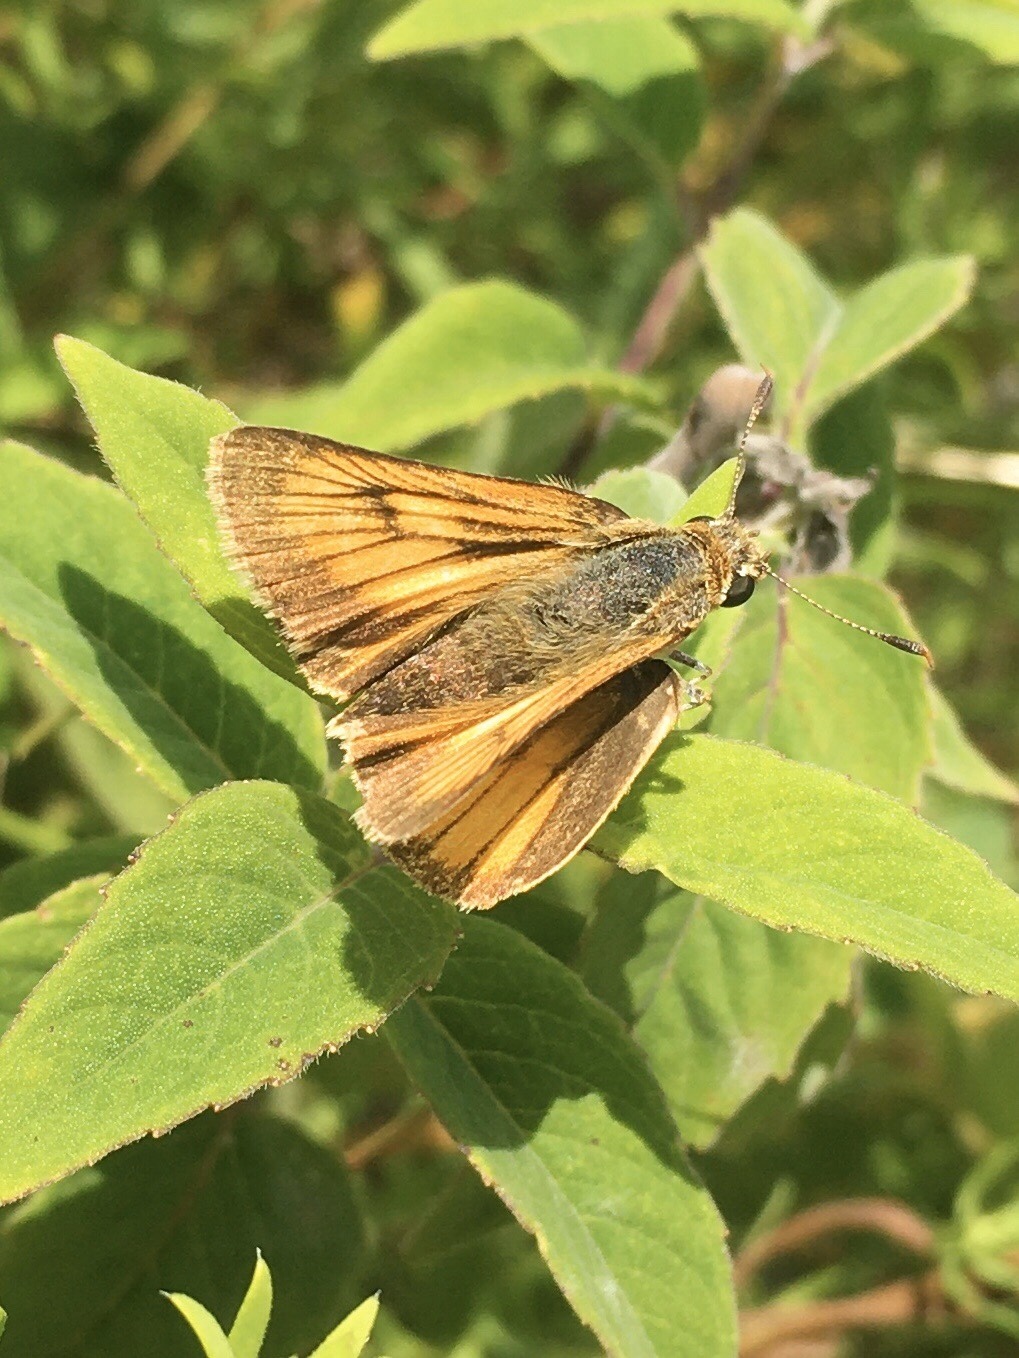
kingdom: Animalia
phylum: Arthropoda
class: Insecta
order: Lepidoptera
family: Hesperiidae
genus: Atrytone
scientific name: Atrytone delaware
